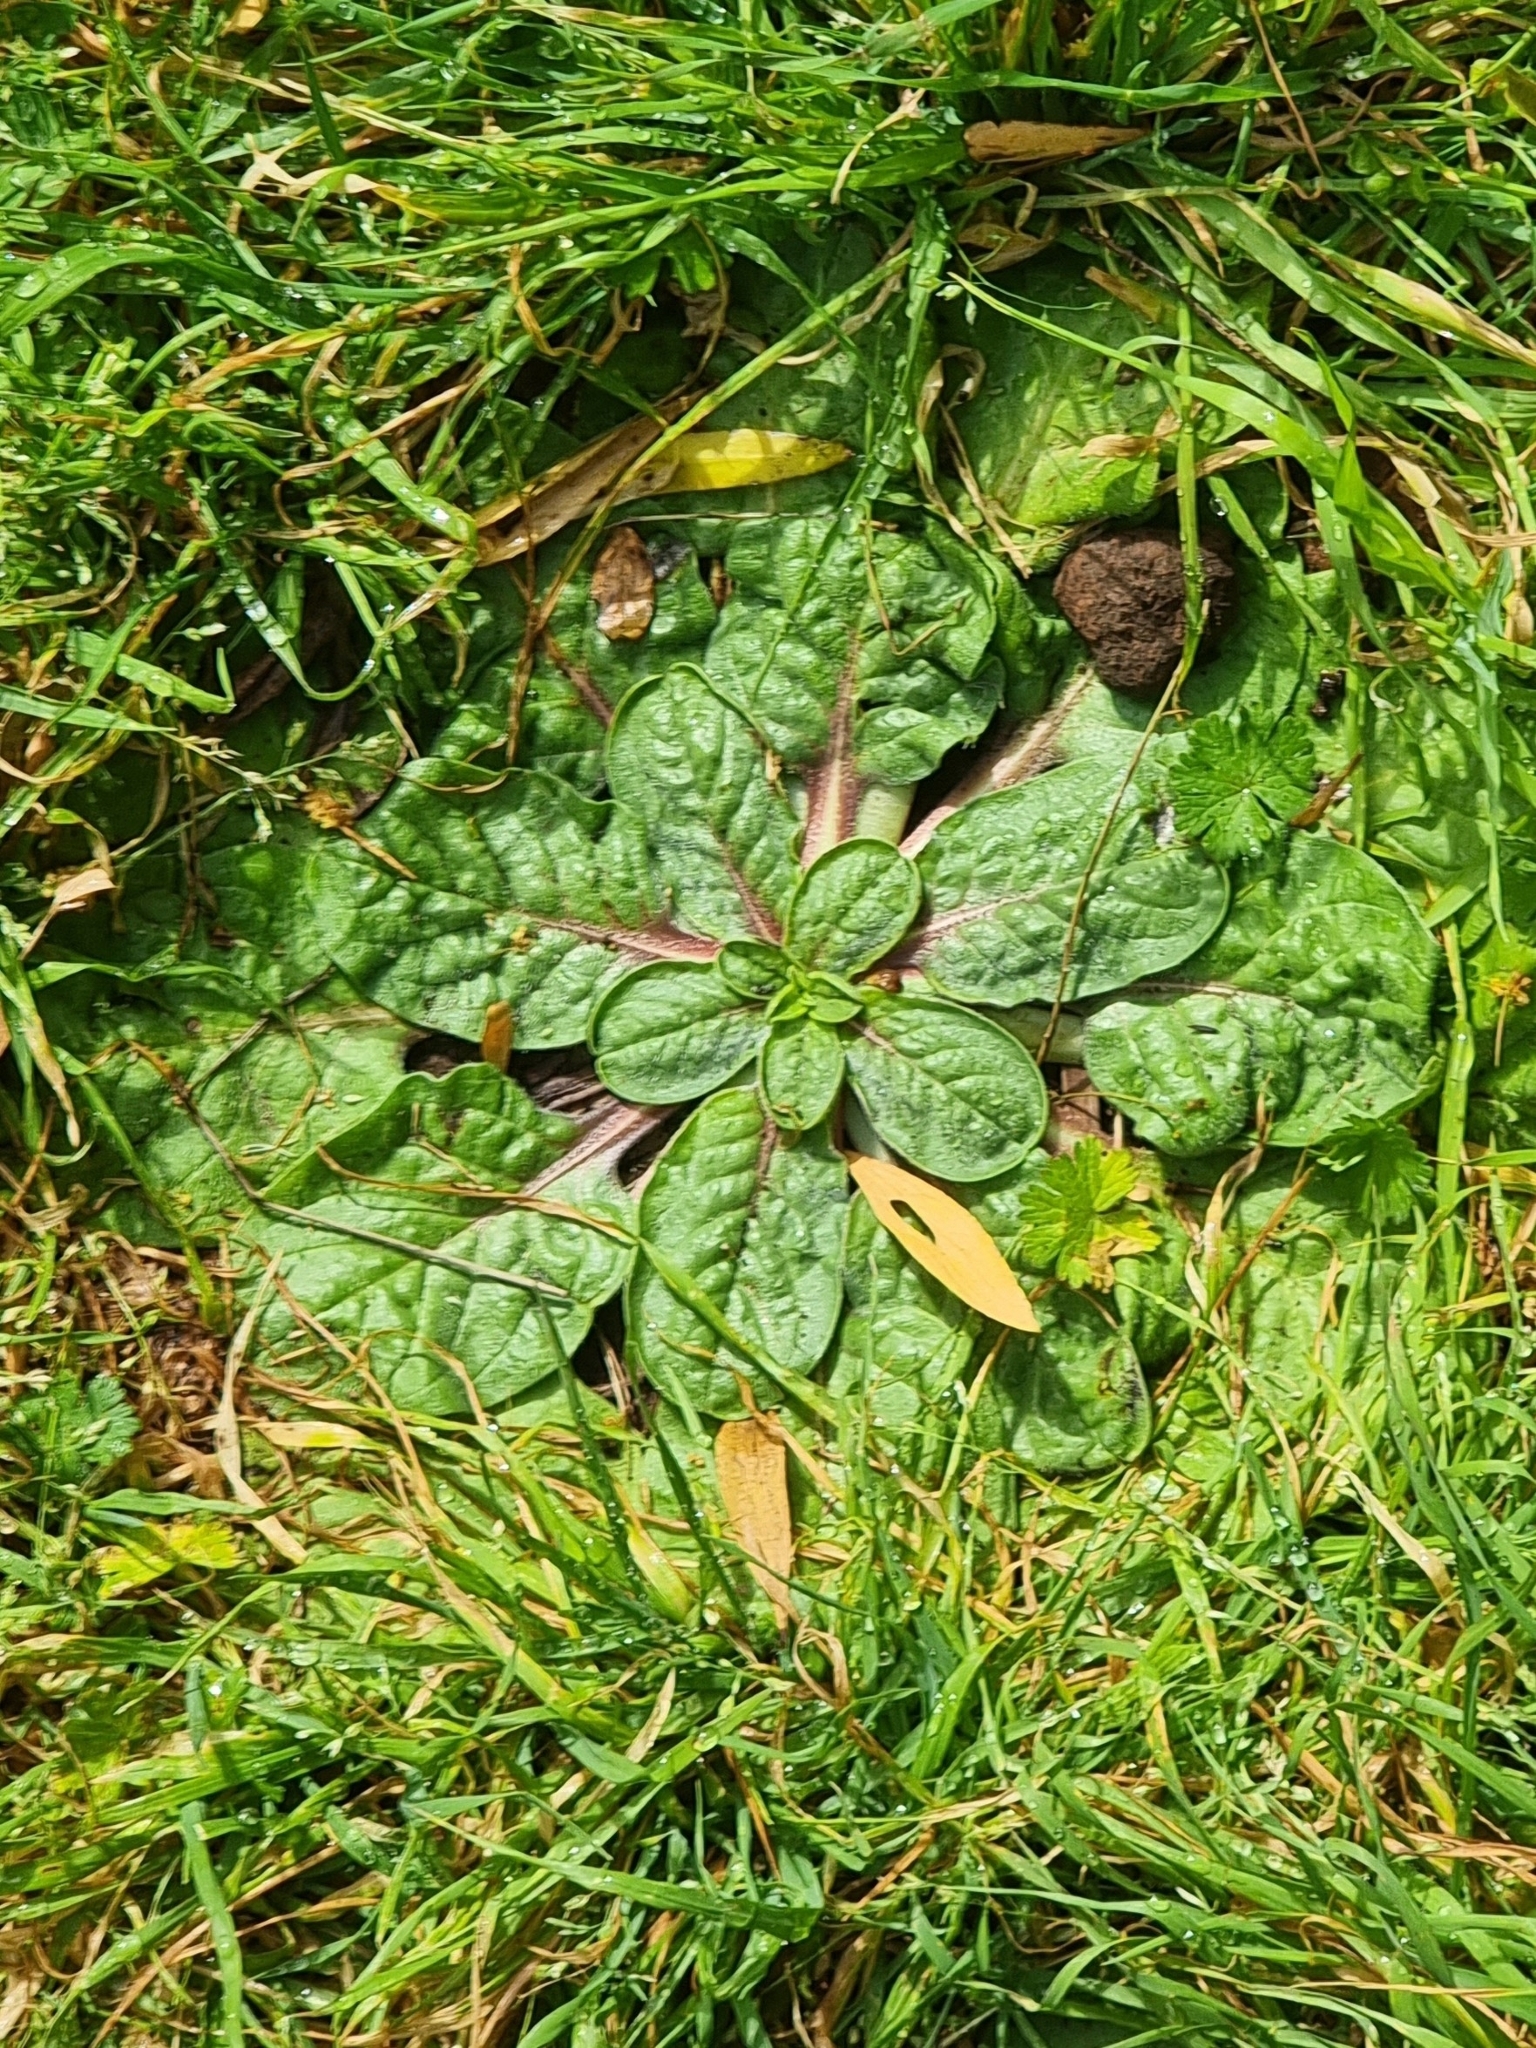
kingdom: Plantae
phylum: Tracheophyta
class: Magnoliopsida
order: Boraginales
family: Boraginaceae
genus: Echium
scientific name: Echium plantagineum
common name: Purple viper's-bugloss
